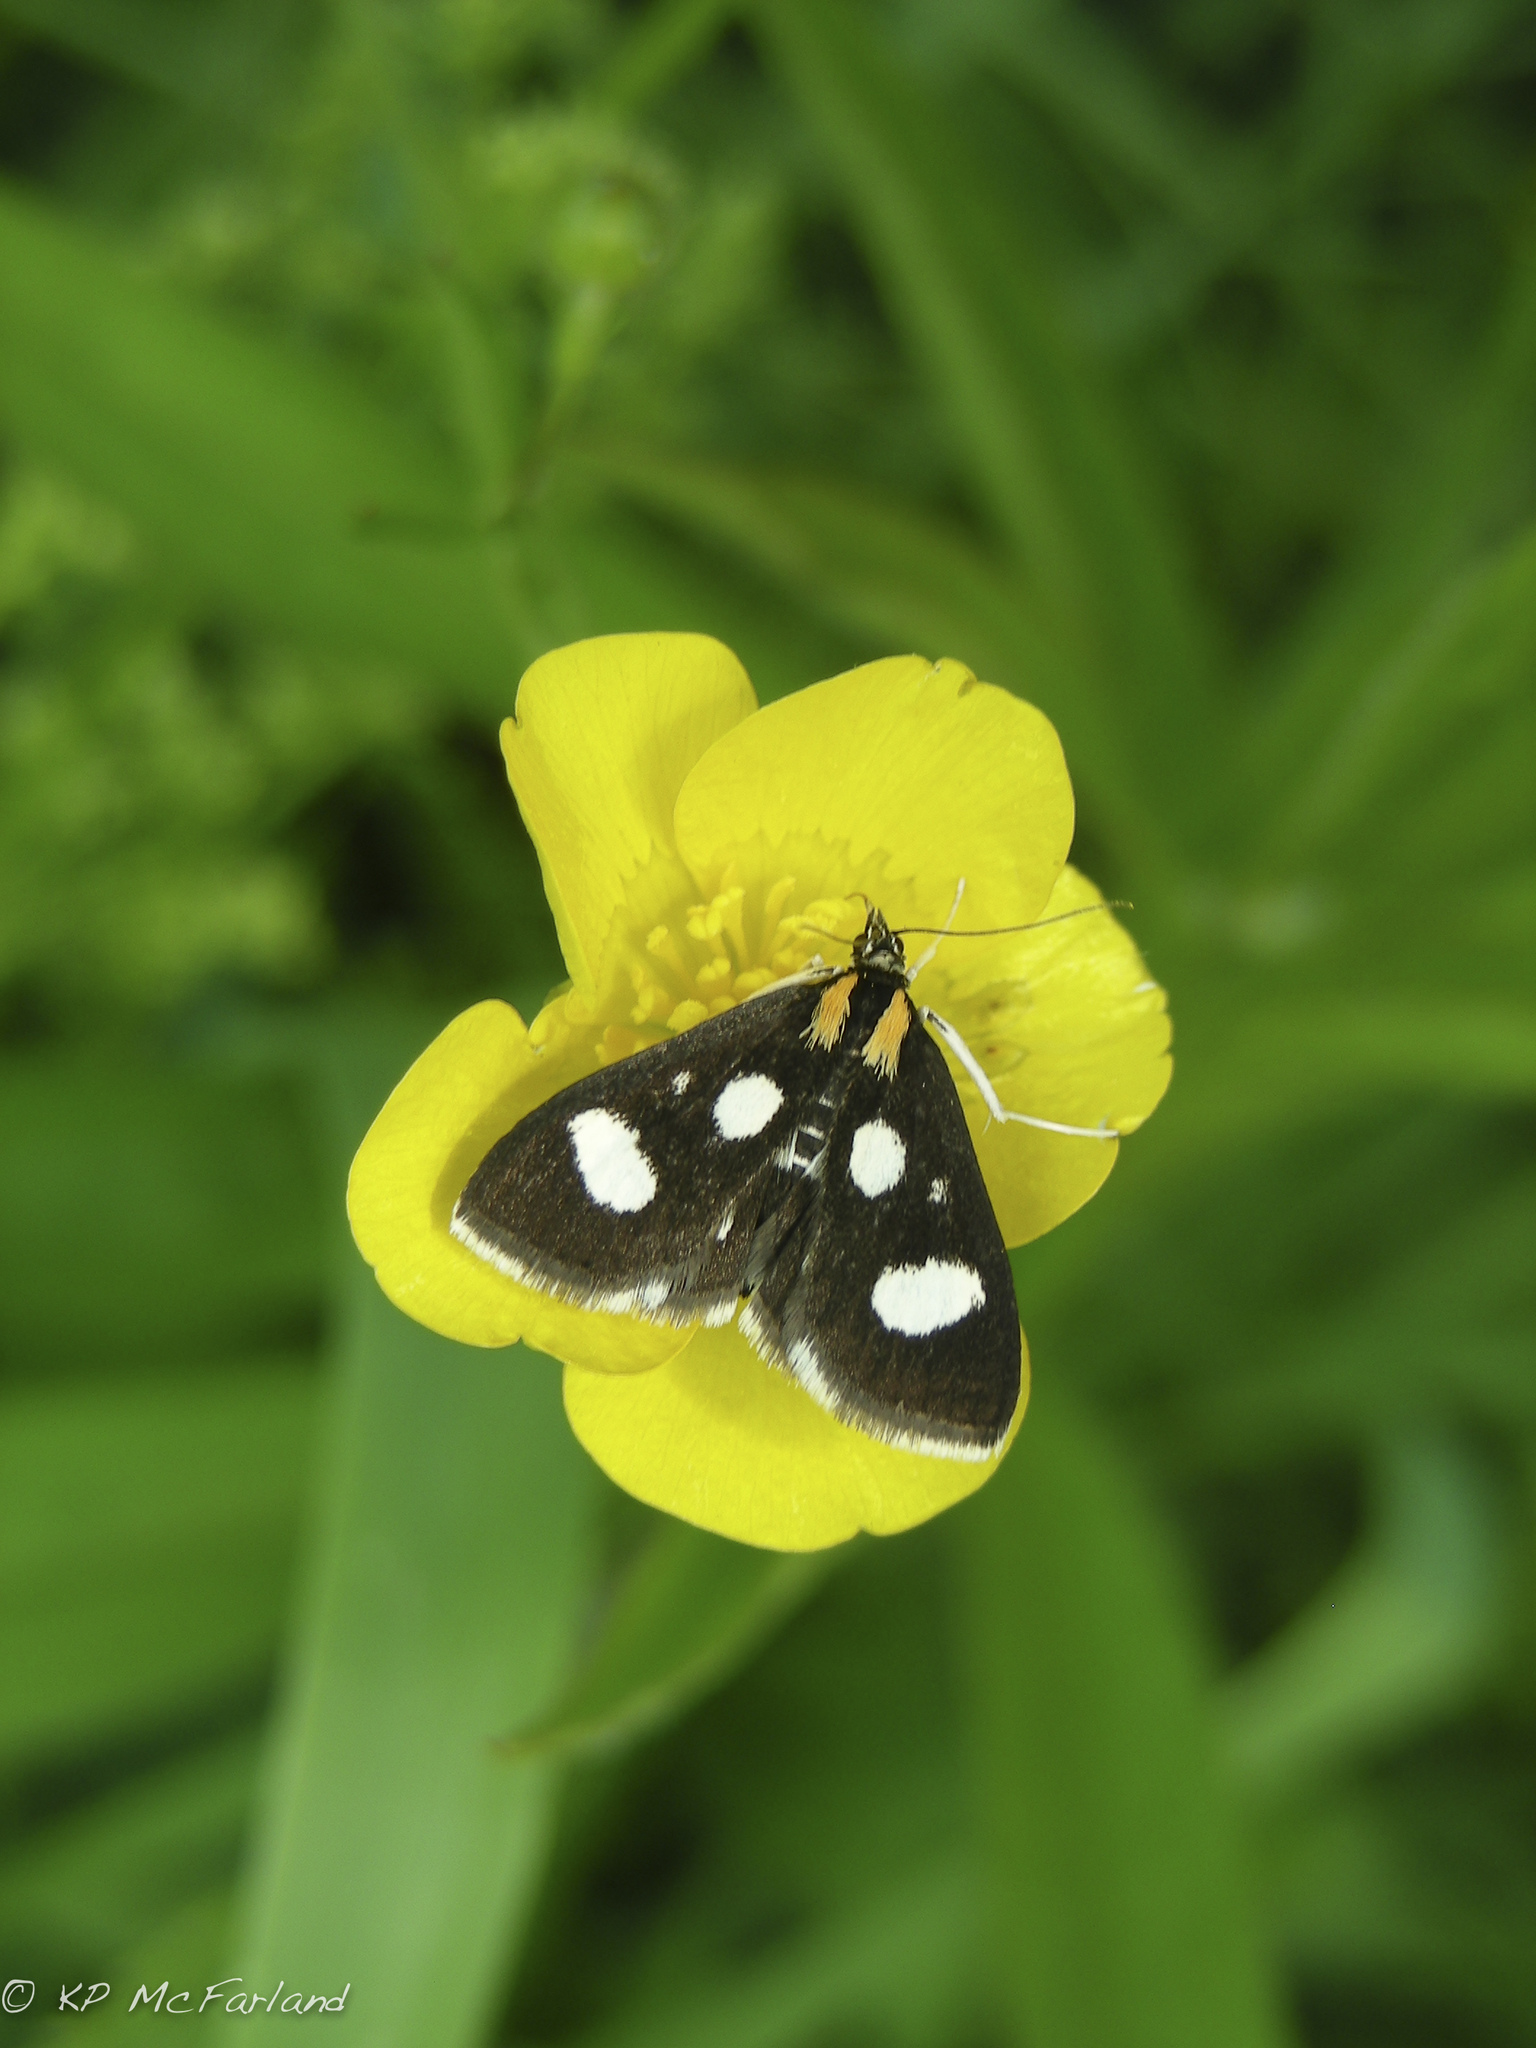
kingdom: Animalia
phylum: Arthropoda
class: Insecta
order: Lepidoptera
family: Crambidae
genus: Anania
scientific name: Anania funebris
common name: White-spotted sable moth
